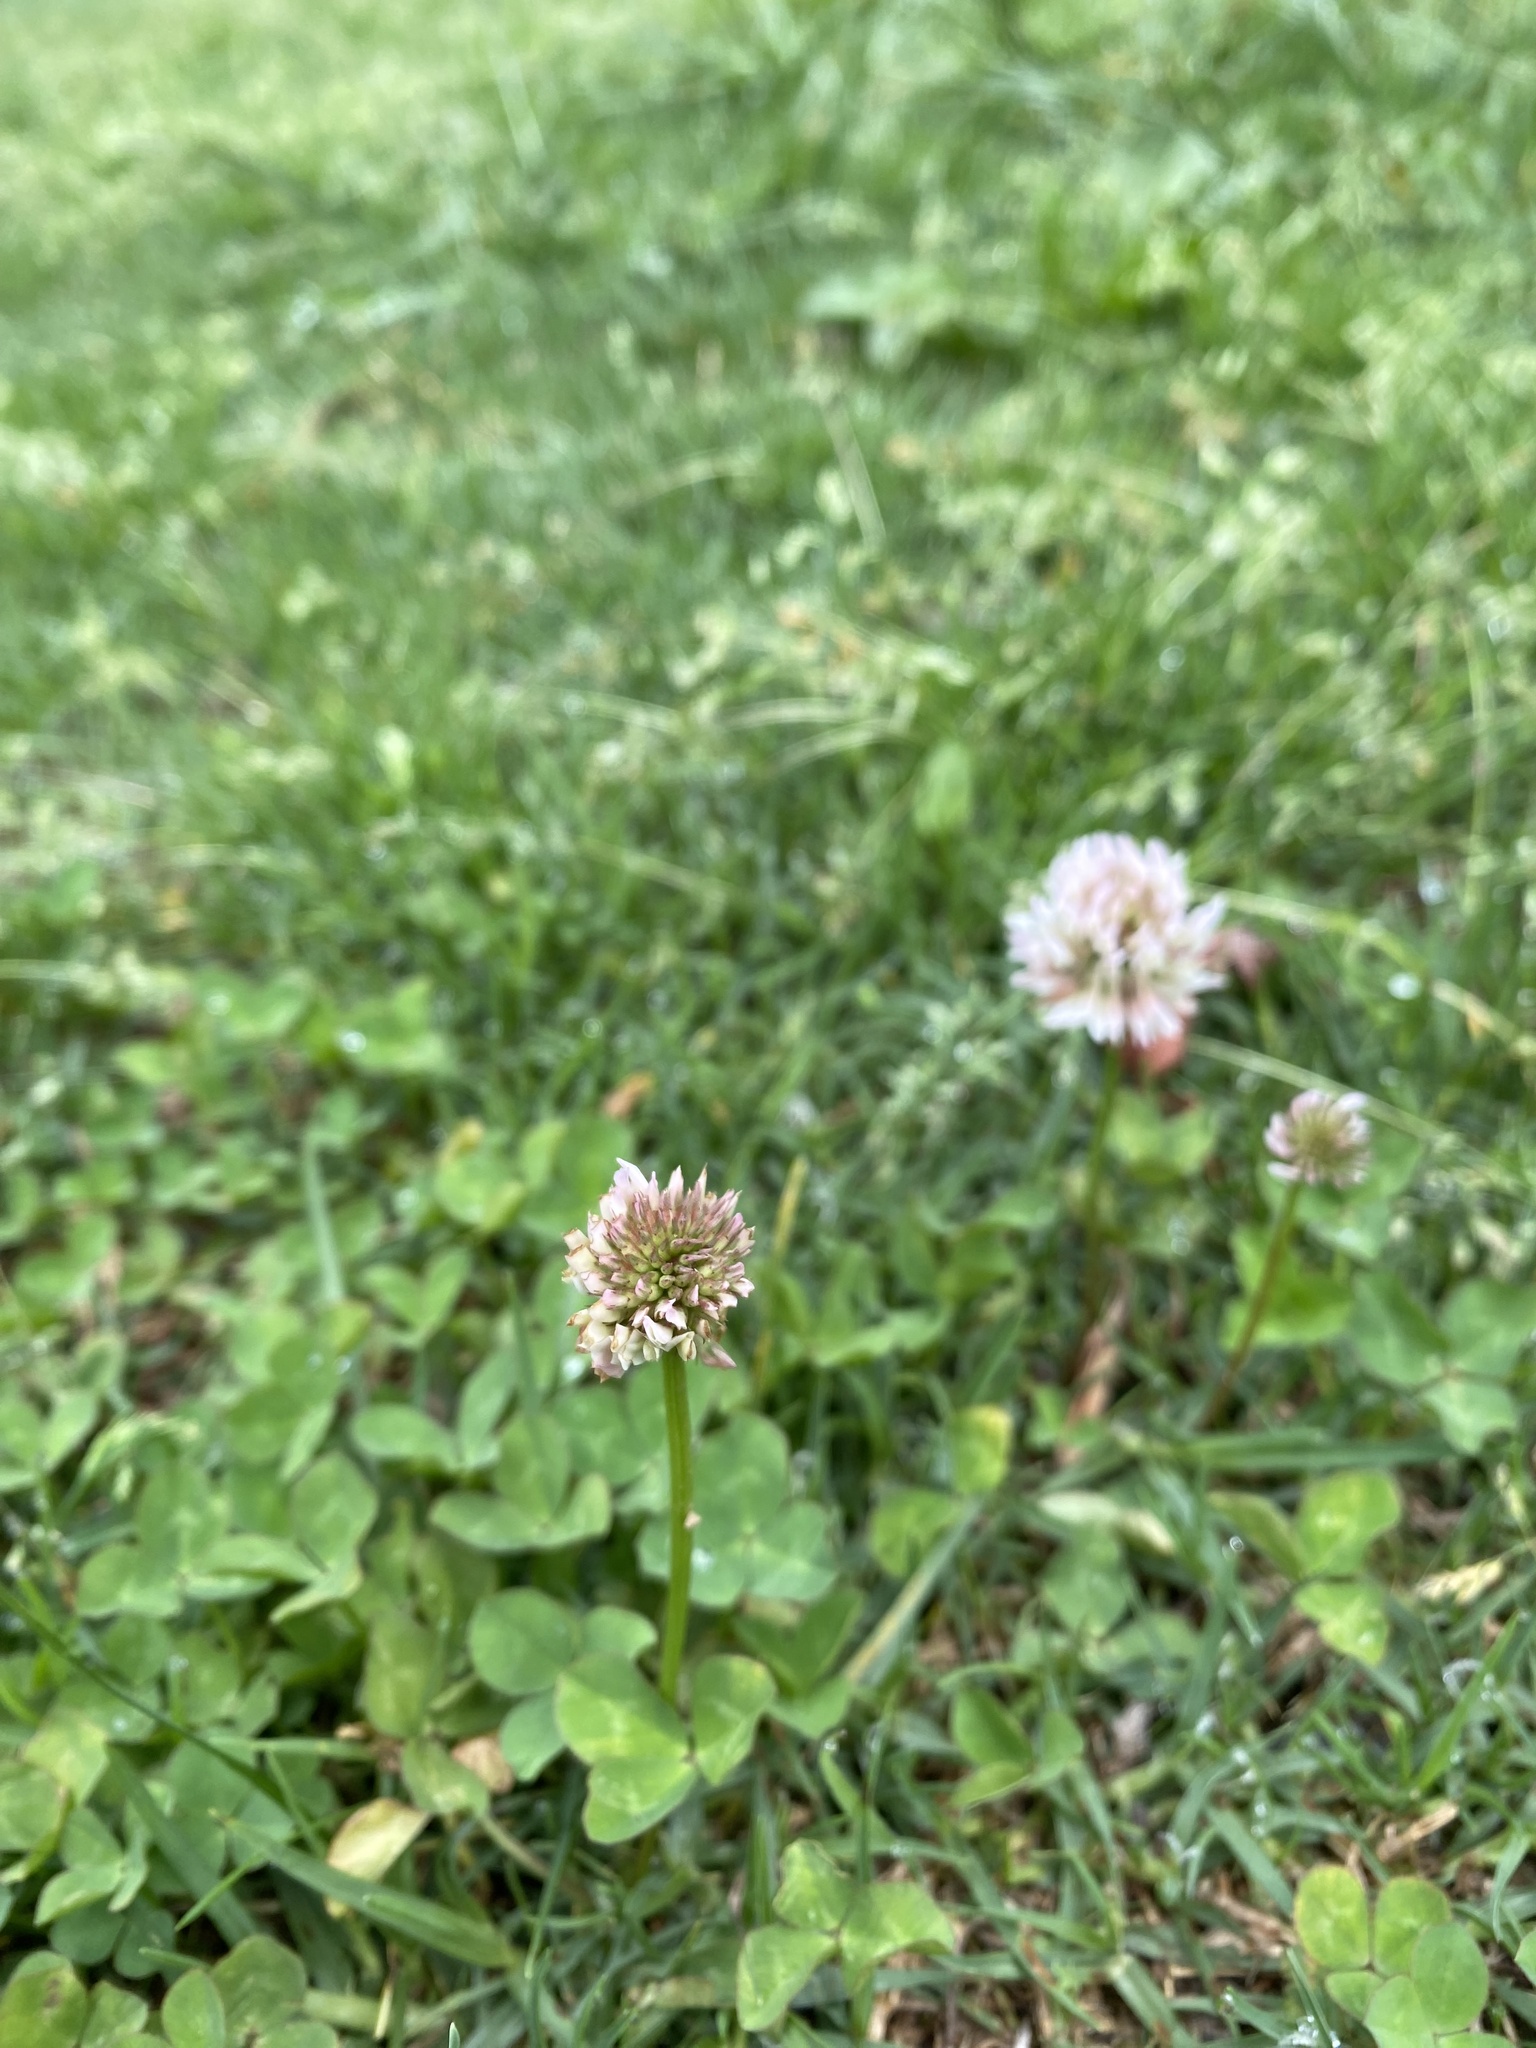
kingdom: Plantae
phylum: Tracheophyta
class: Magnoliopsida
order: Fabales
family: Fabaceae
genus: Trifolium
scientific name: Trifolium repens
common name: White clover
